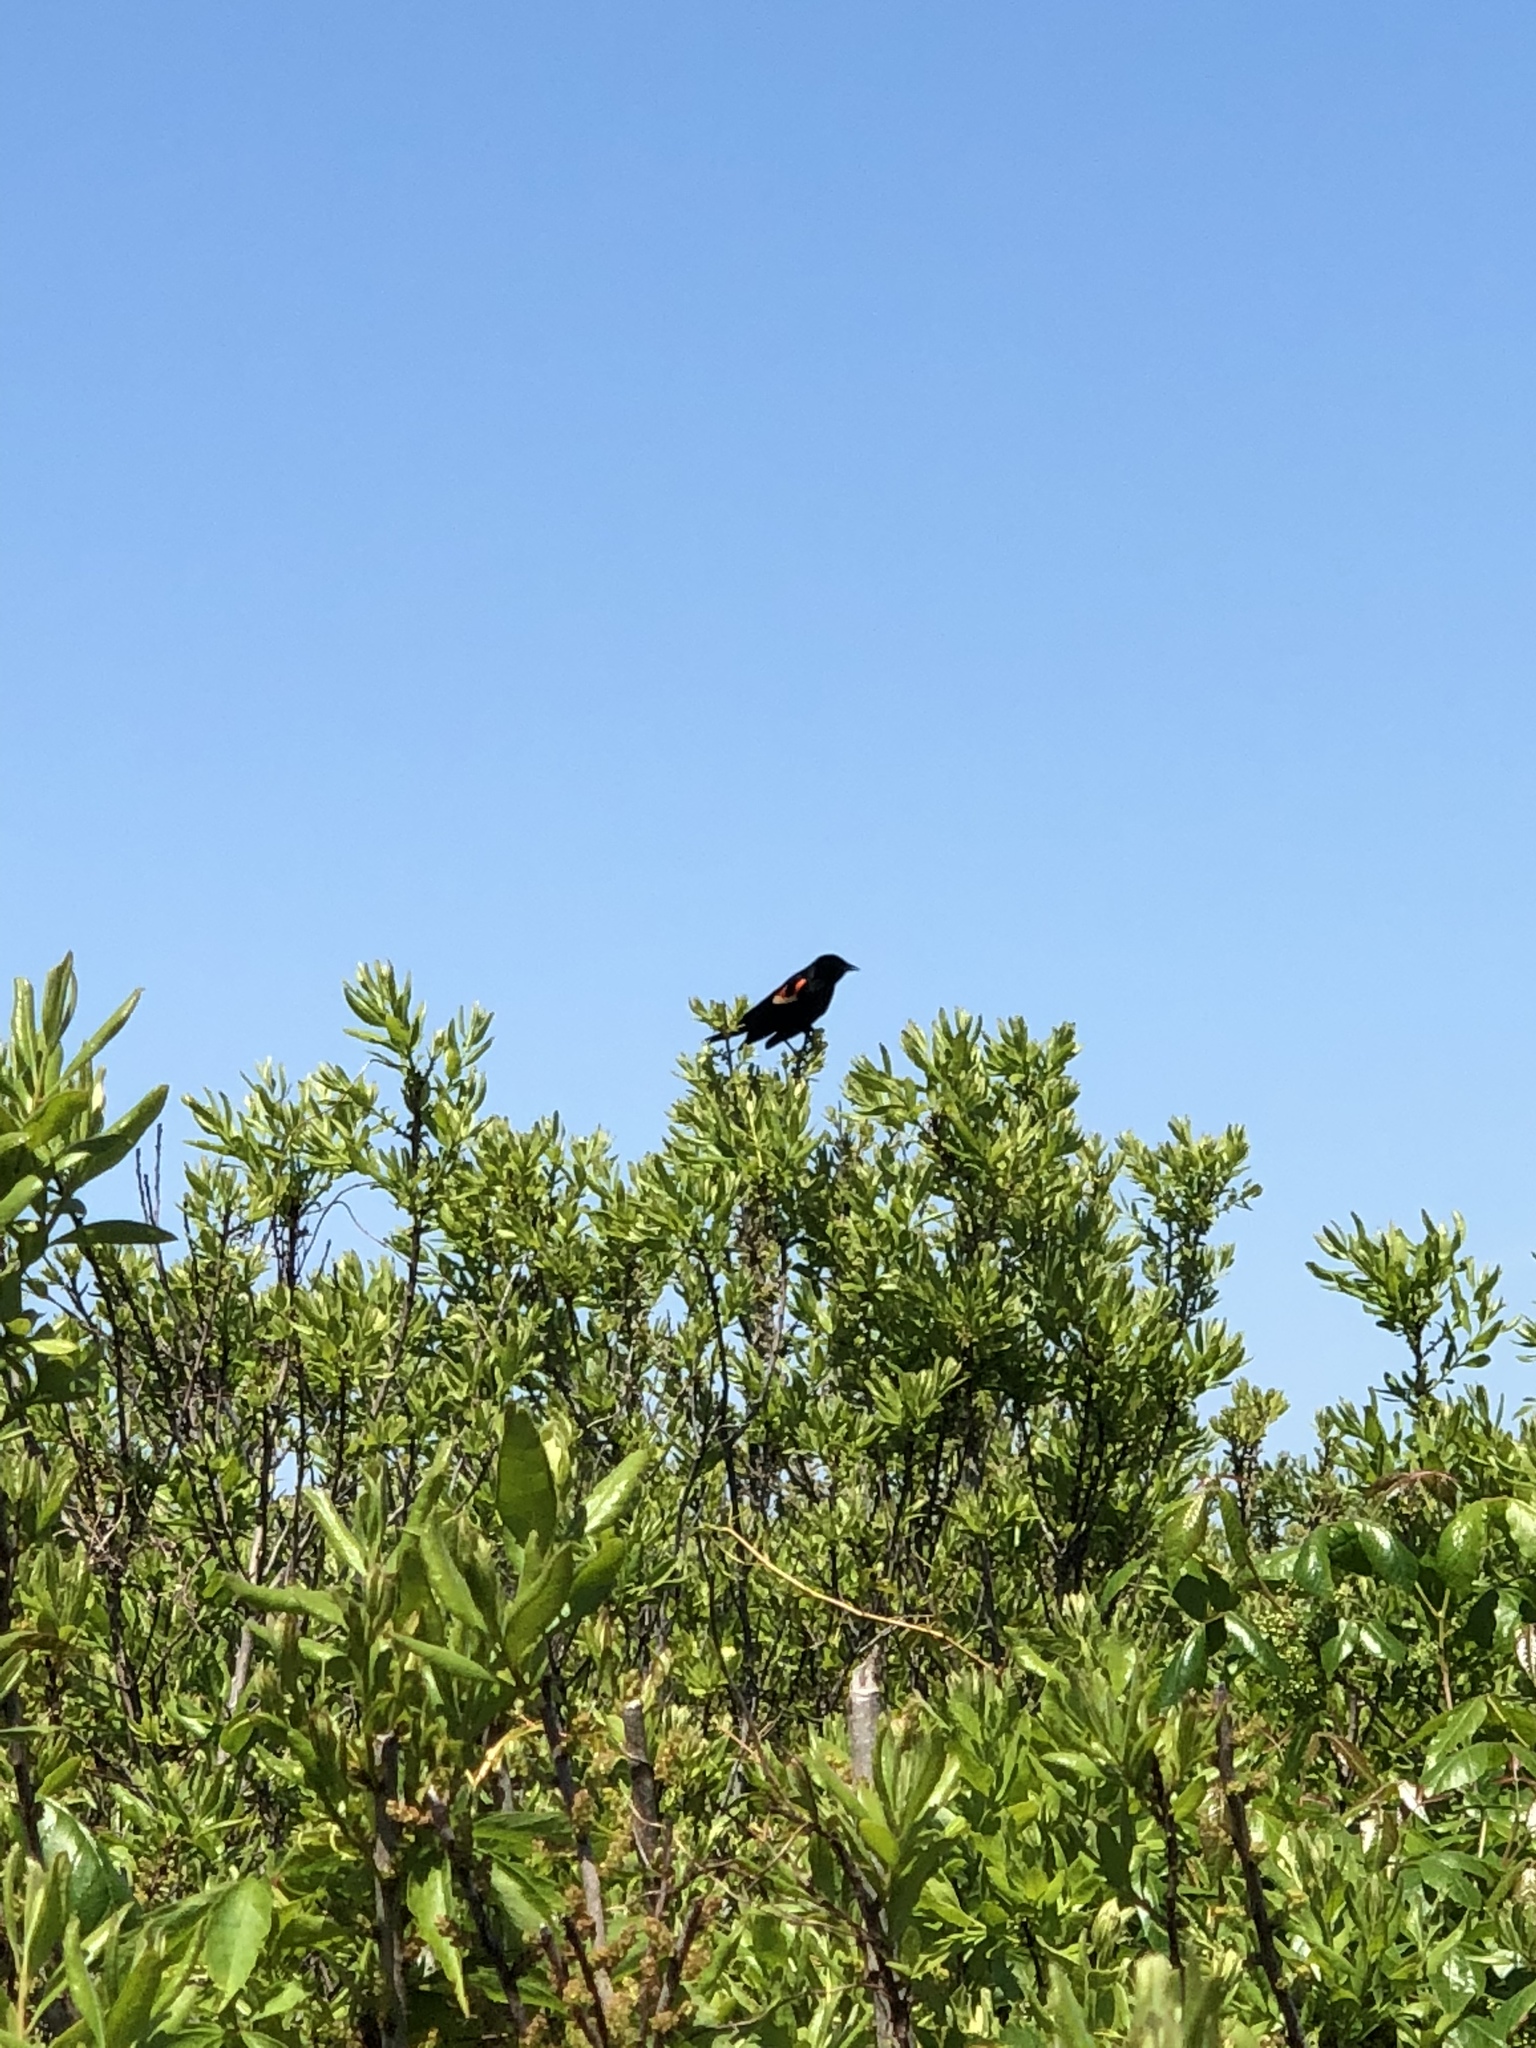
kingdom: Animalia
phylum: Chordata
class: Aves
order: Passeriformes
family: Icteridae
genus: Agelaius
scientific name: Agelaius phoeniceus
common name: Red-winged blackbird
